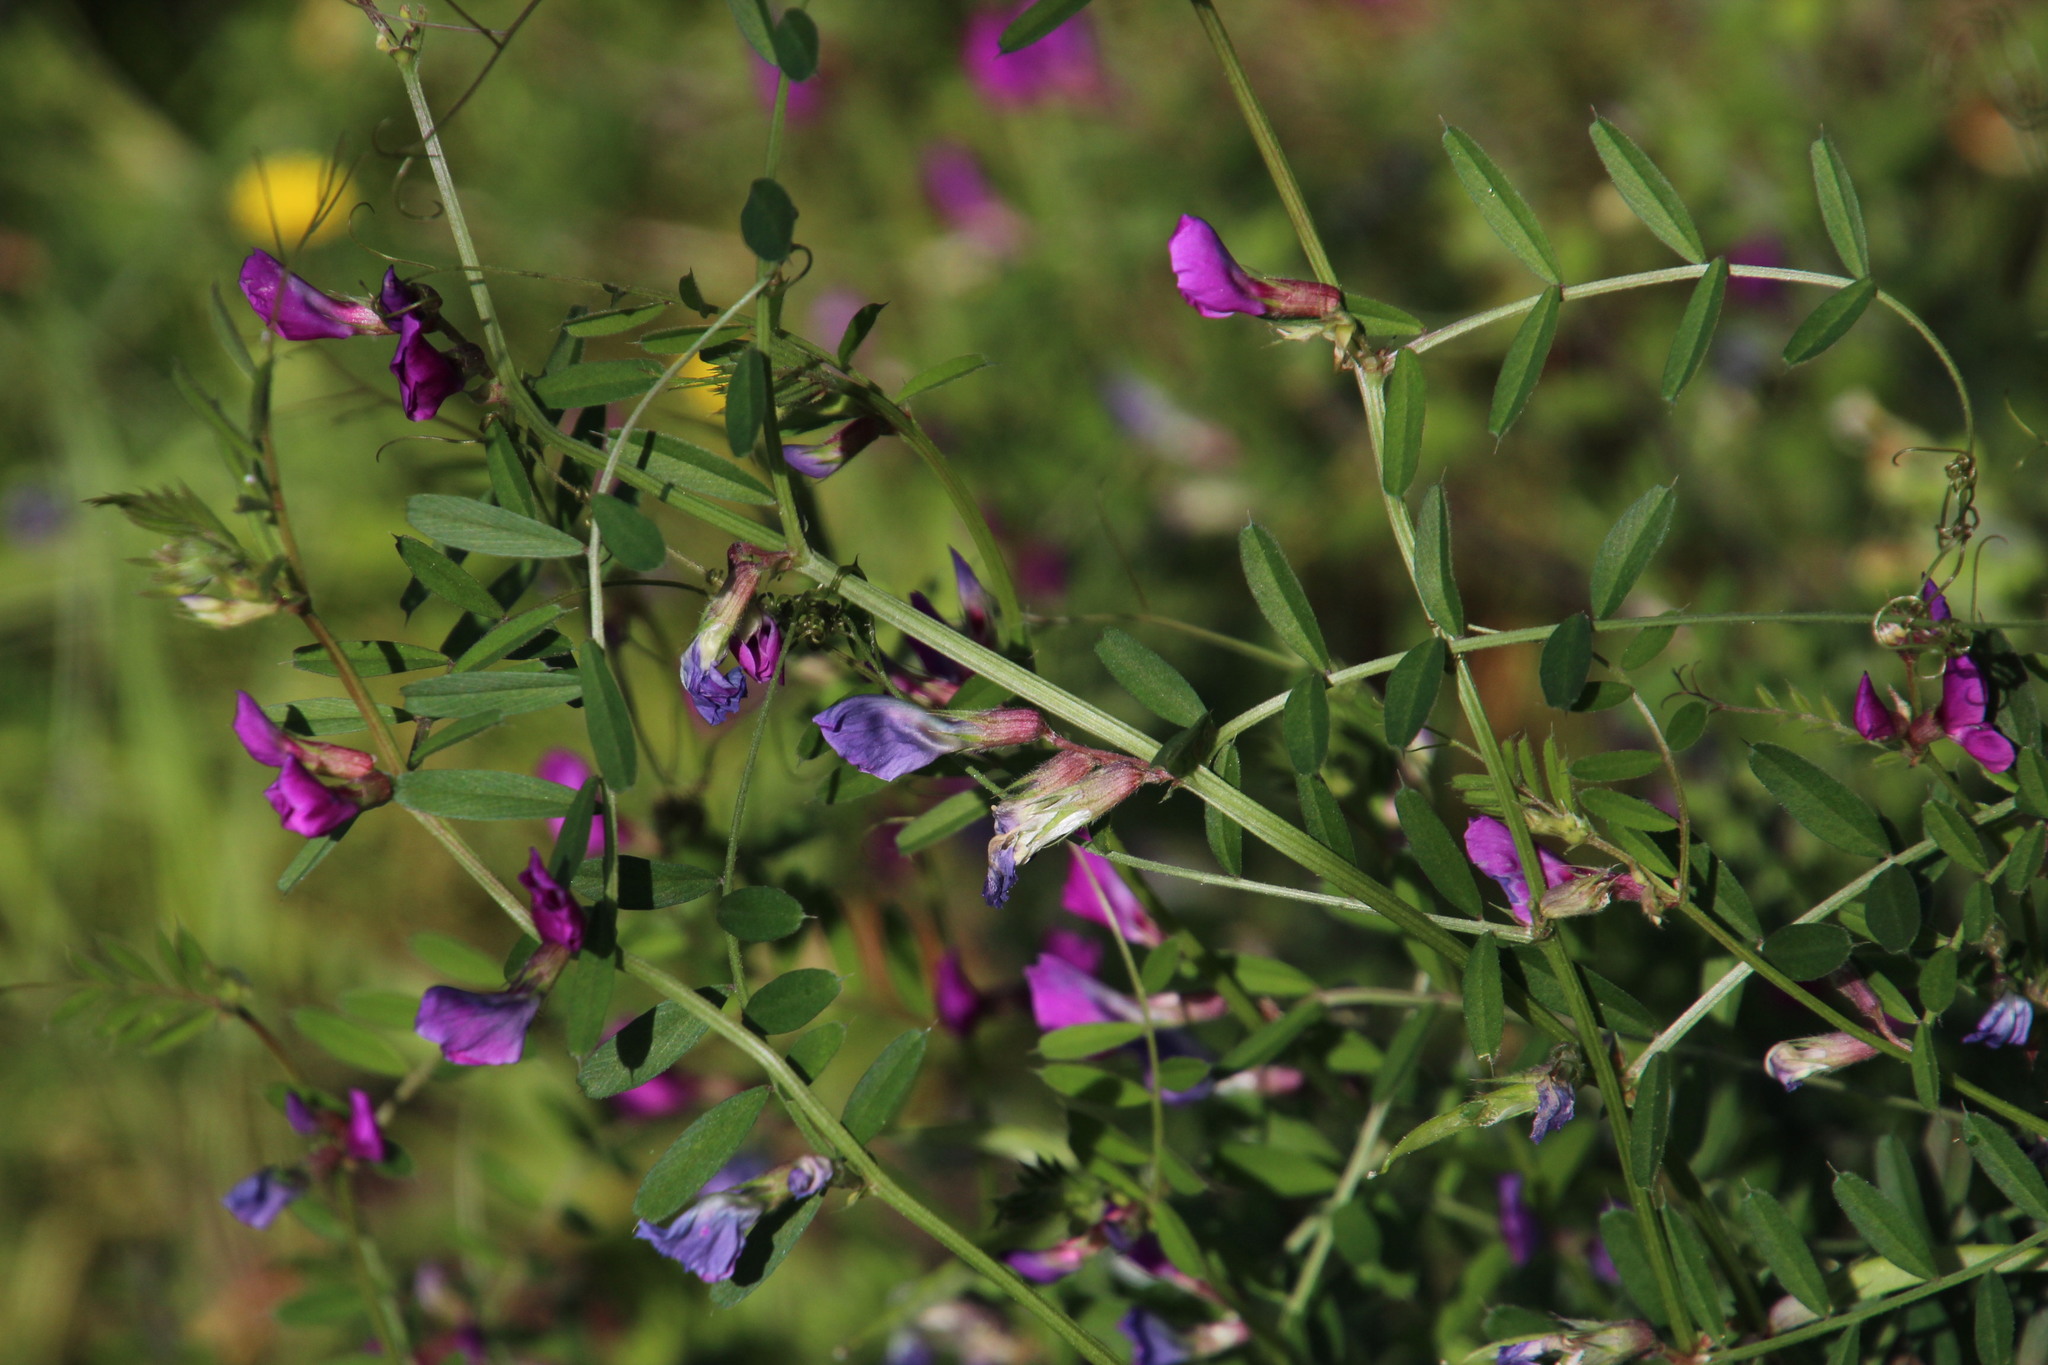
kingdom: Plantae
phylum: Tracheophyta
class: Magnoliopsida
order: Fabales
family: Fabaceae
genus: Vicia
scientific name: Vicia sativa
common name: Garden vetch
